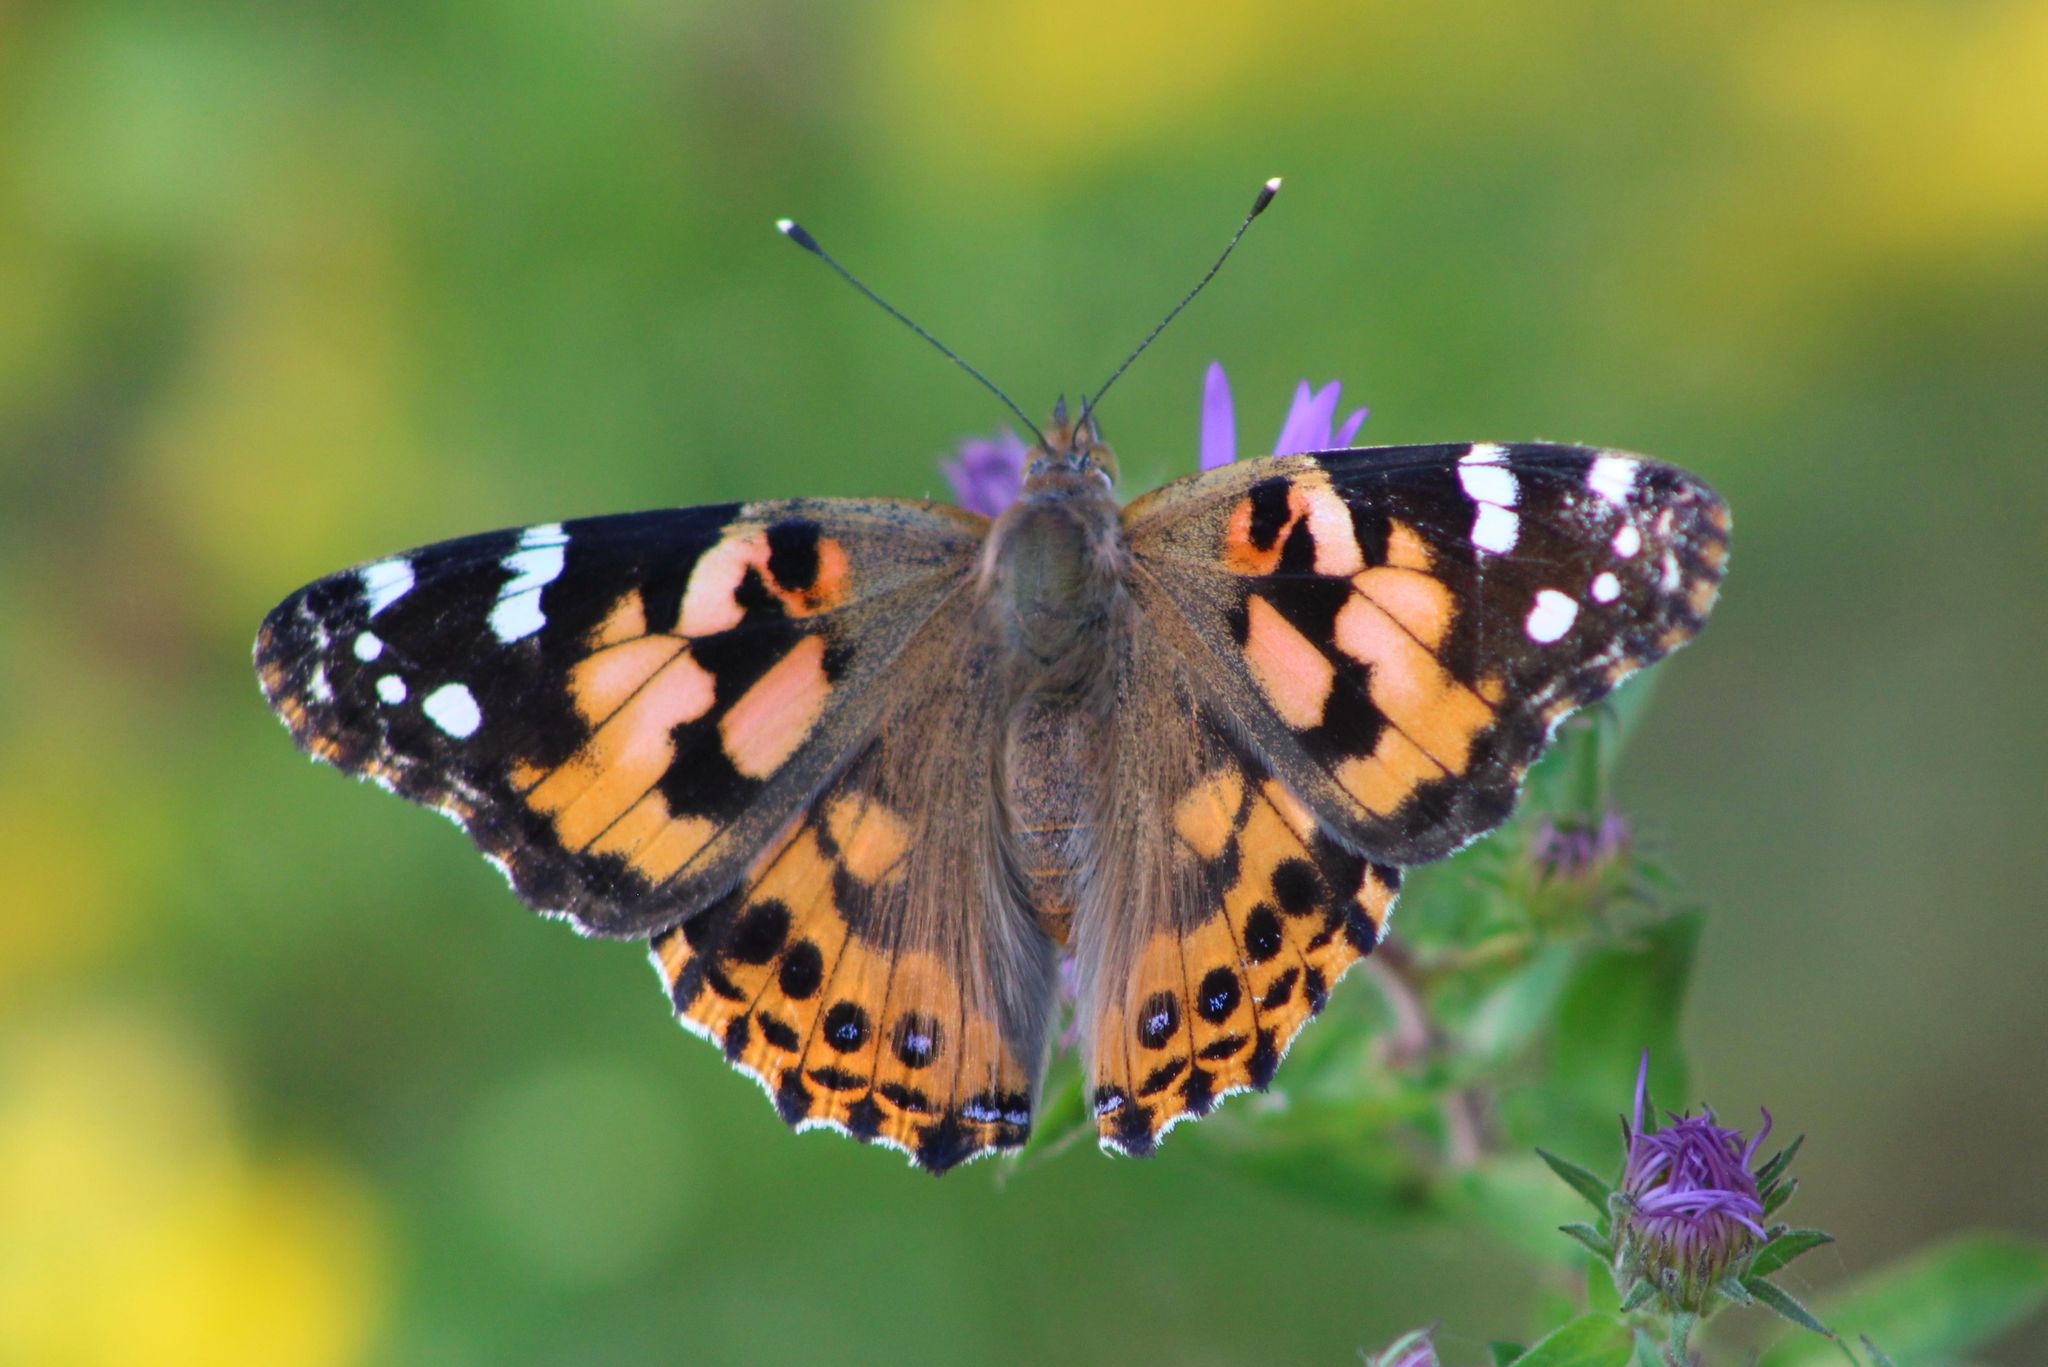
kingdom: Animalia
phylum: Arthropoda
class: Insecta
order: Lepidoptera
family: Nymphalidae
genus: Vanessa
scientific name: Vanessa cardui
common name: Painted lady
